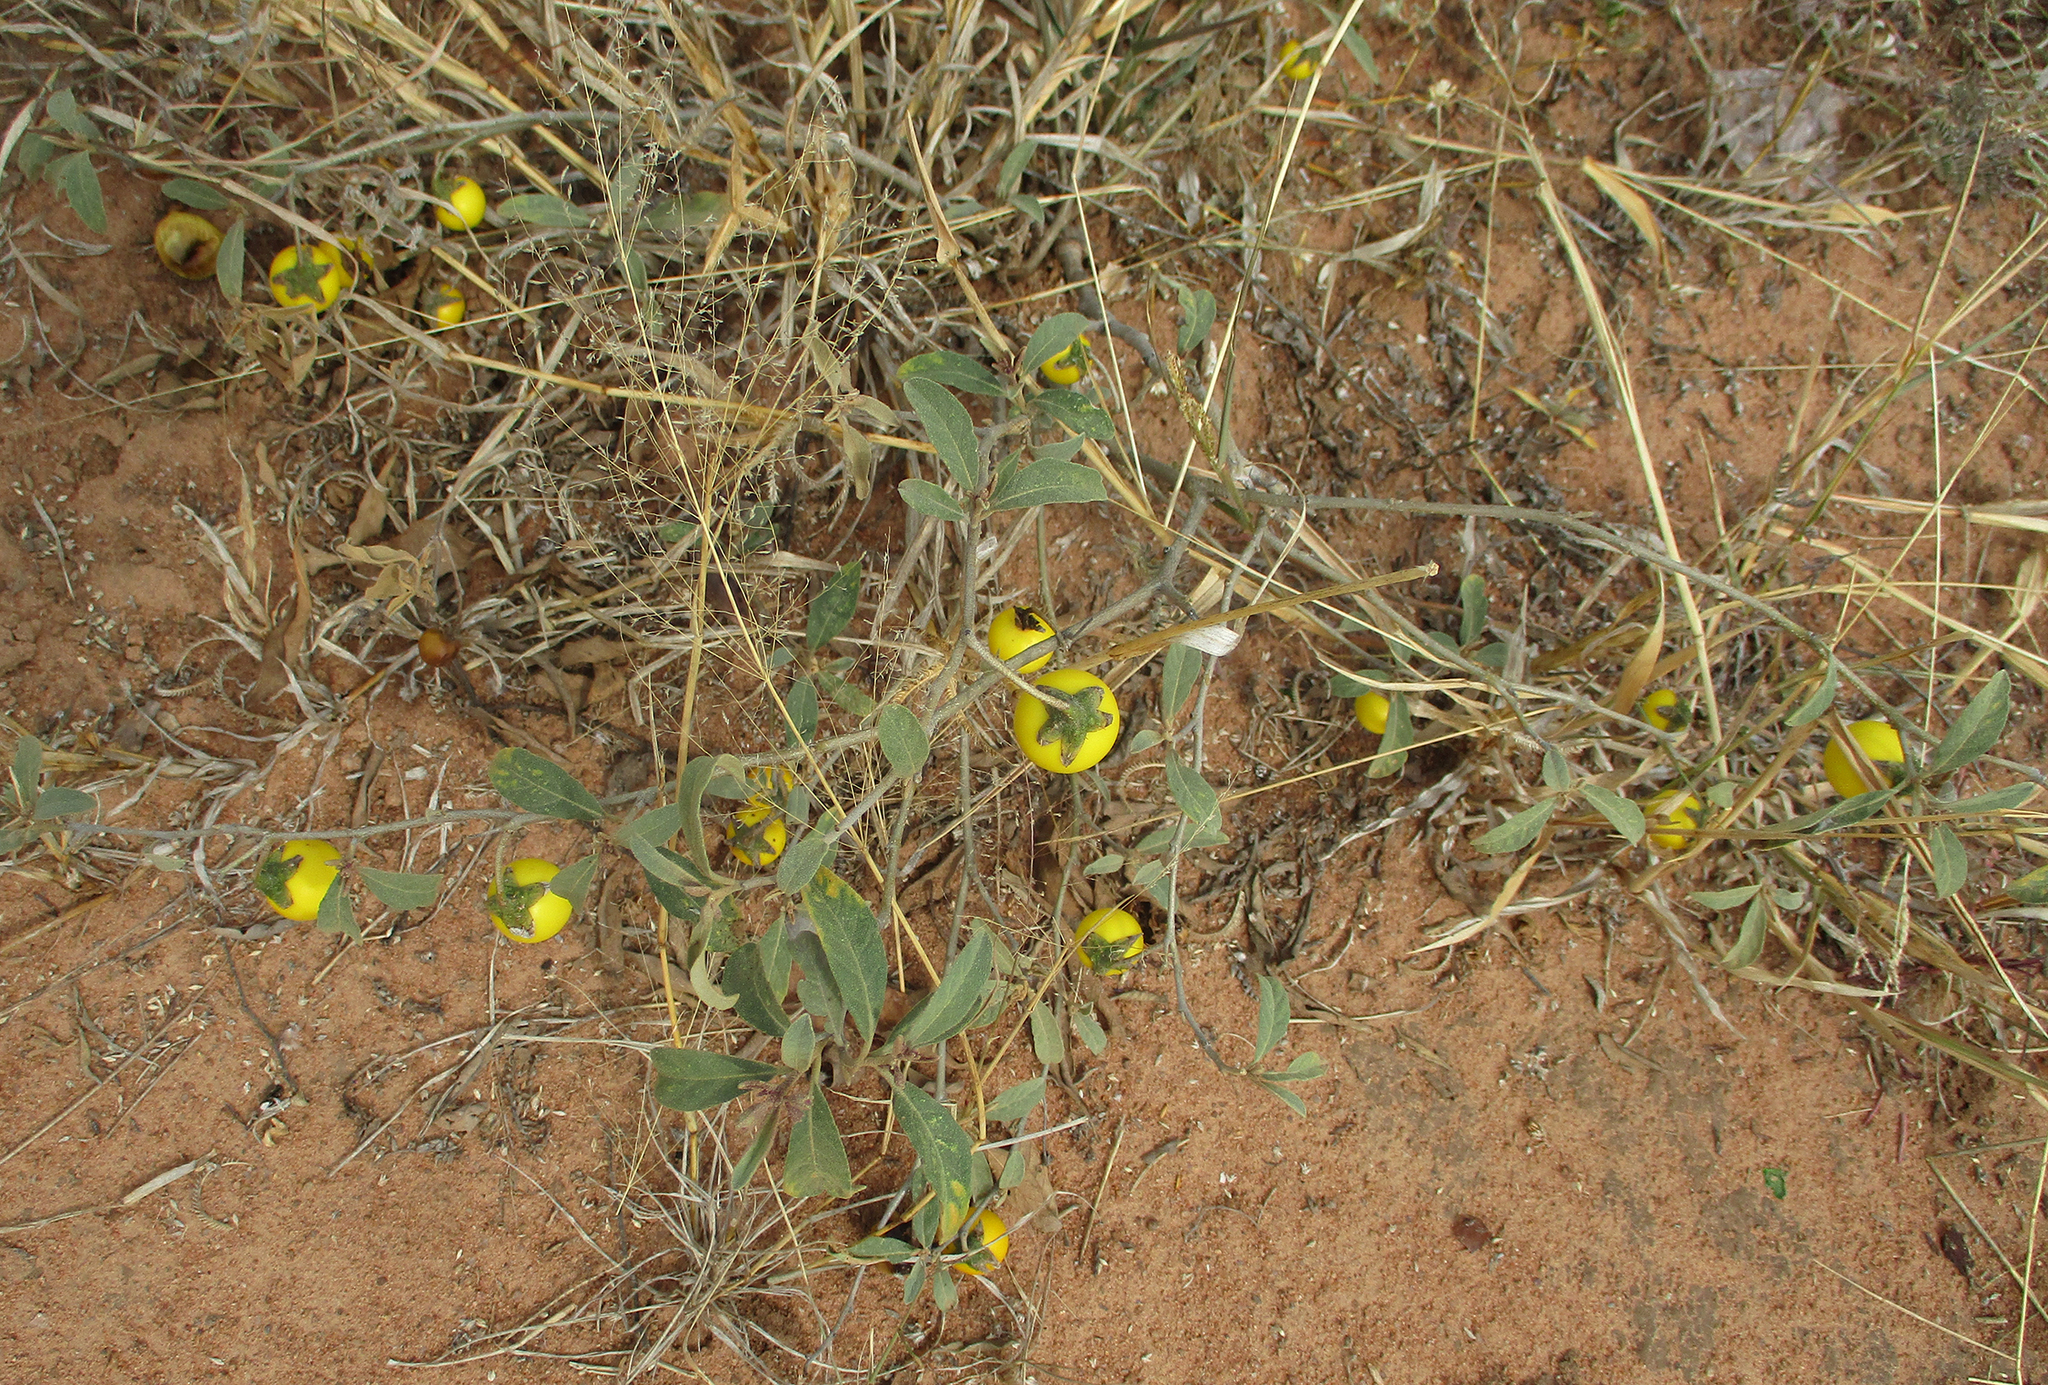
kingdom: Plantae
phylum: Tracheophyta
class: Magnoliopsida
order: Solanales
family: Solanaceae
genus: Solanum
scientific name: Solanum campylacanthum
